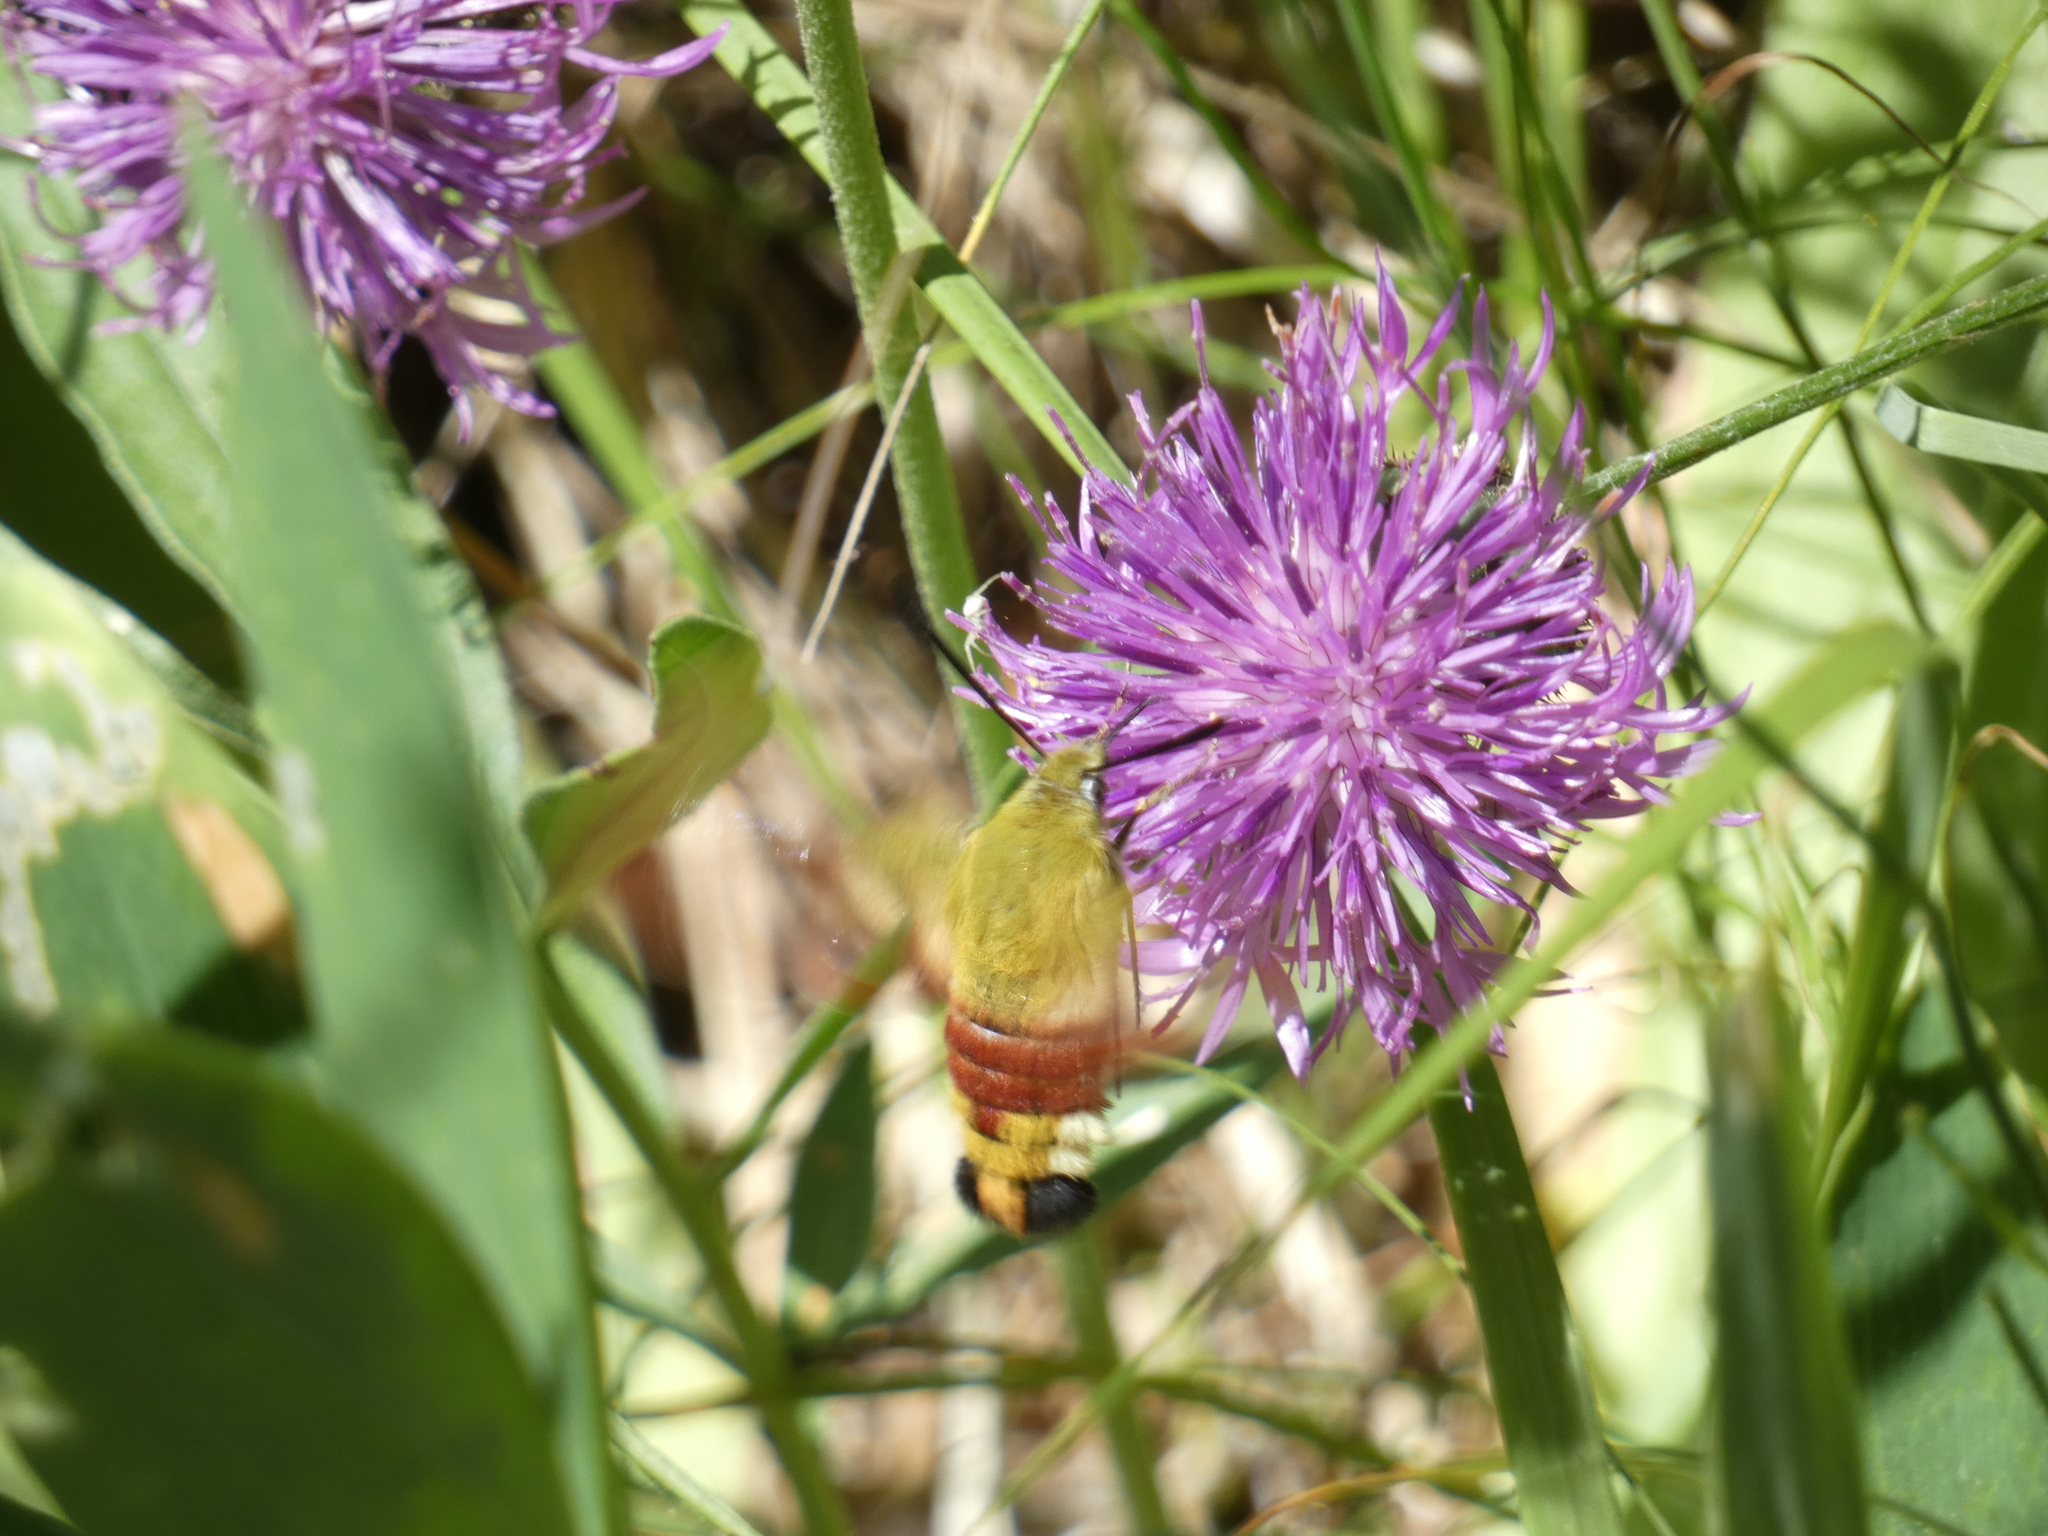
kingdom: Animalia
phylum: Arthropoda
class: Insecta
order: Lepidoptera
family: Sphingidae
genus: Hemaris
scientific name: Hemaris fuciformis
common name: Broad-bordered bee hawk-moth
